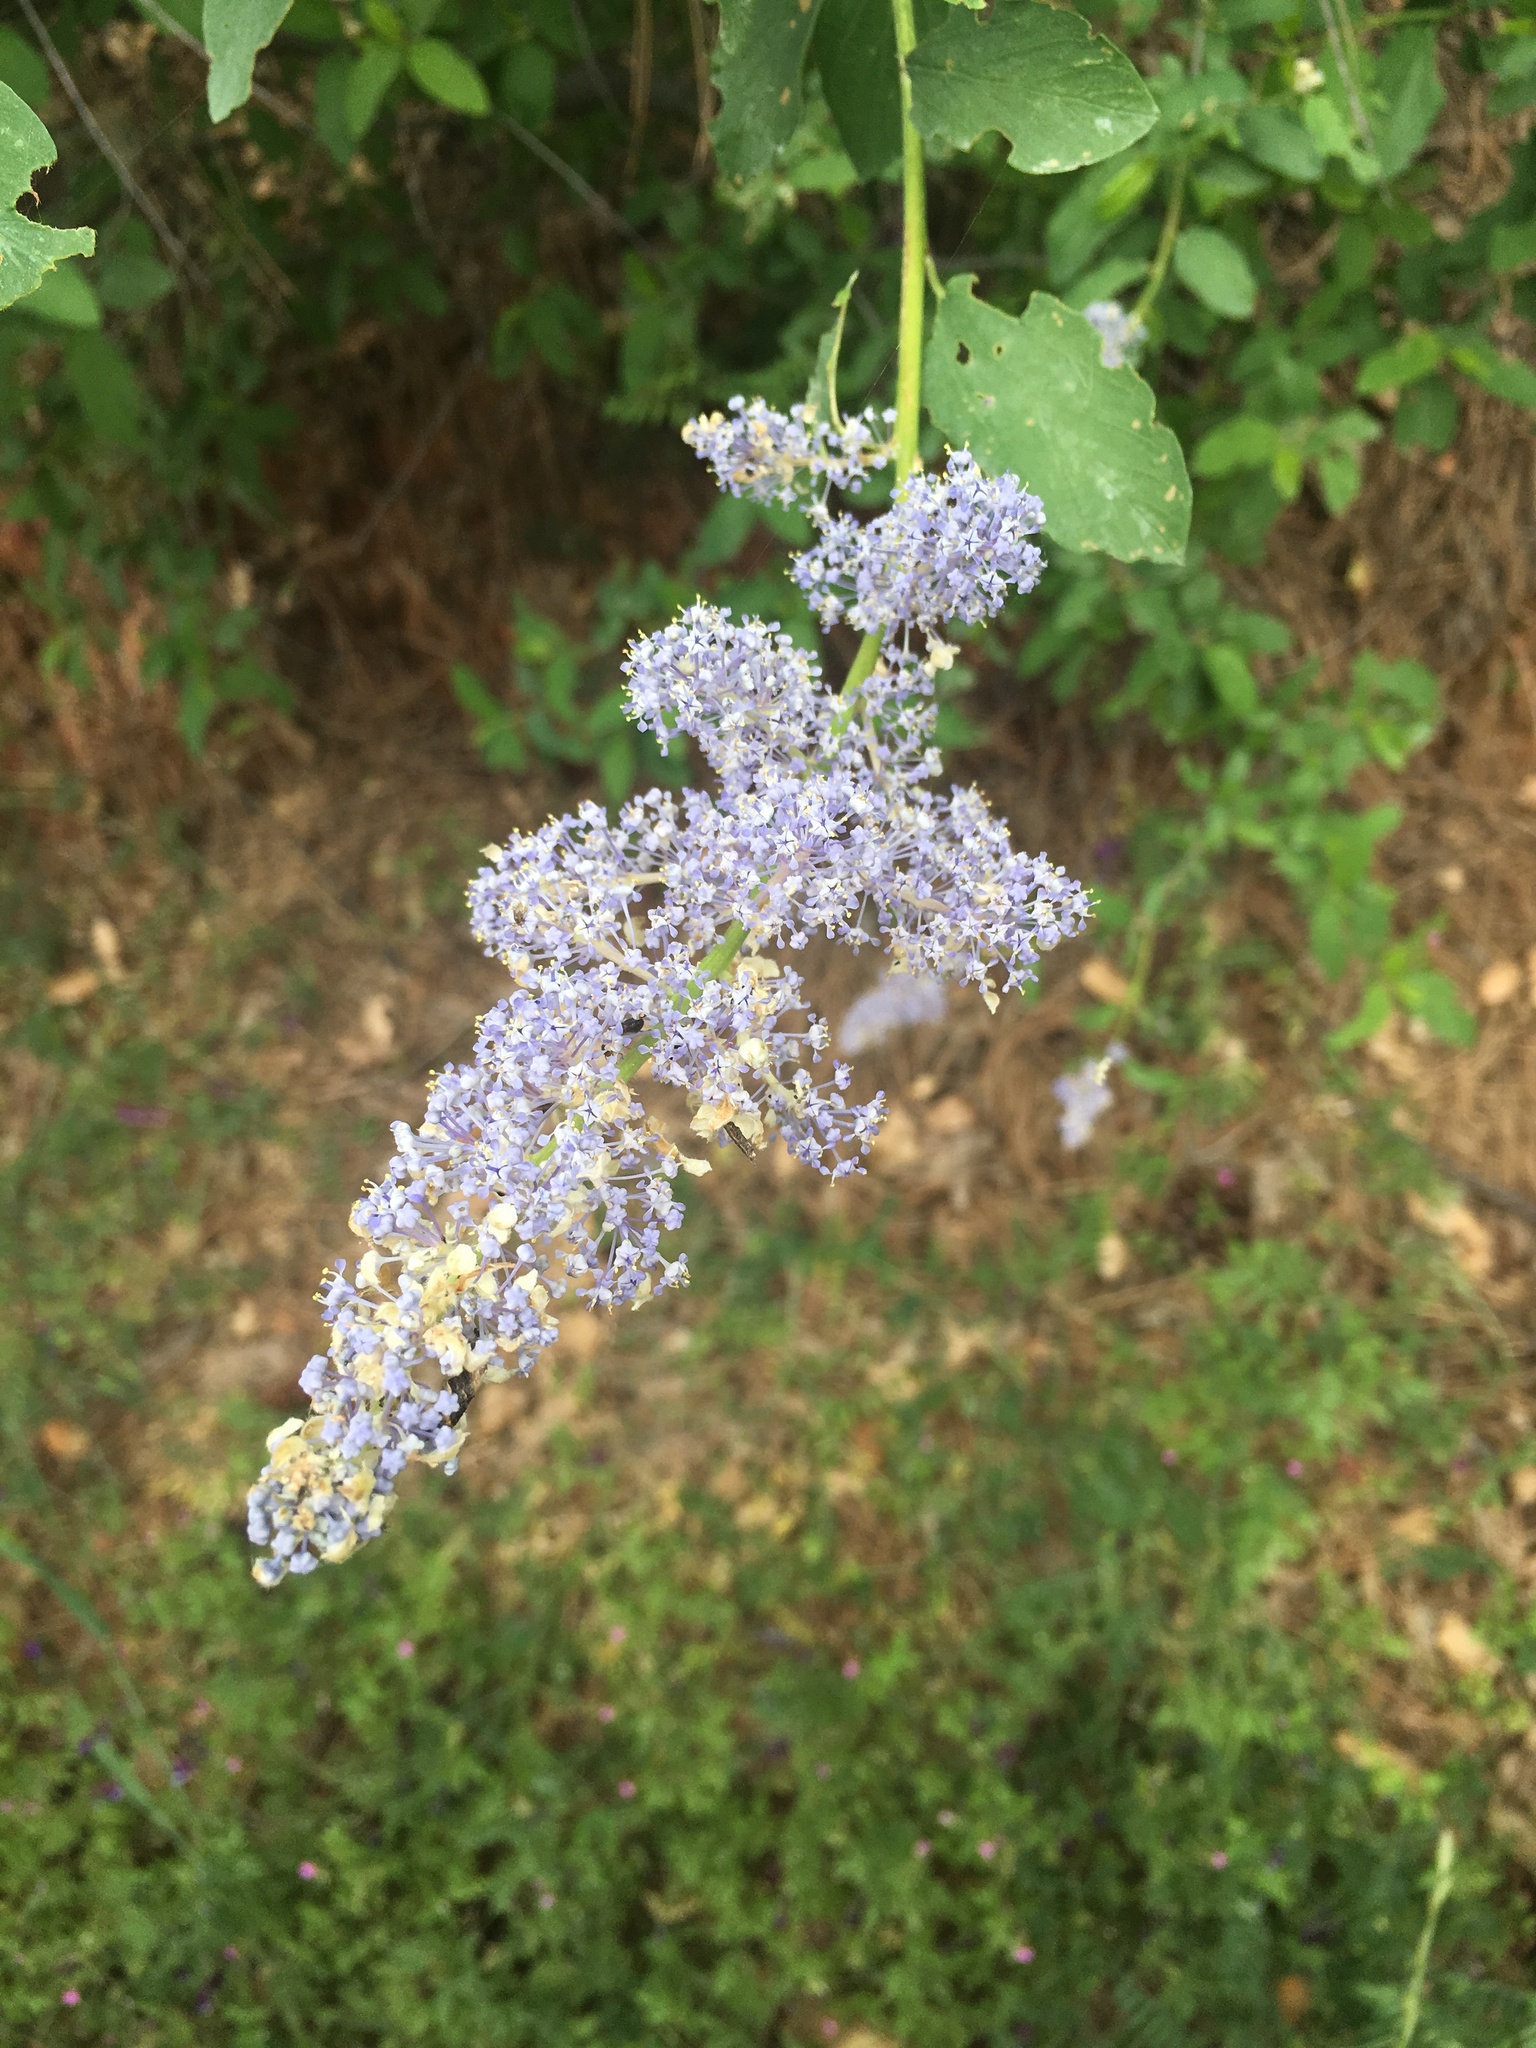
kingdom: Plantae
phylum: Tracheophyta
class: Magnoliopsida
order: Rosales
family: Rhamnaceae
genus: Ceanothus
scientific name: Ceanothus integerrimus
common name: Deerbrush ceanothus
